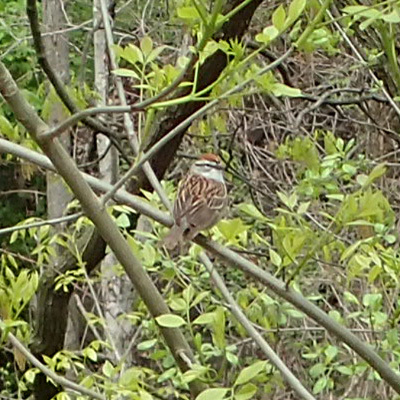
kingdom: Animalia
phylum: Chordata
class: Aves
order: Passeriformes
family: Passerellidae
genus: Spizella
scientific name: Spizella passerina
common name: Chipping sparrow
